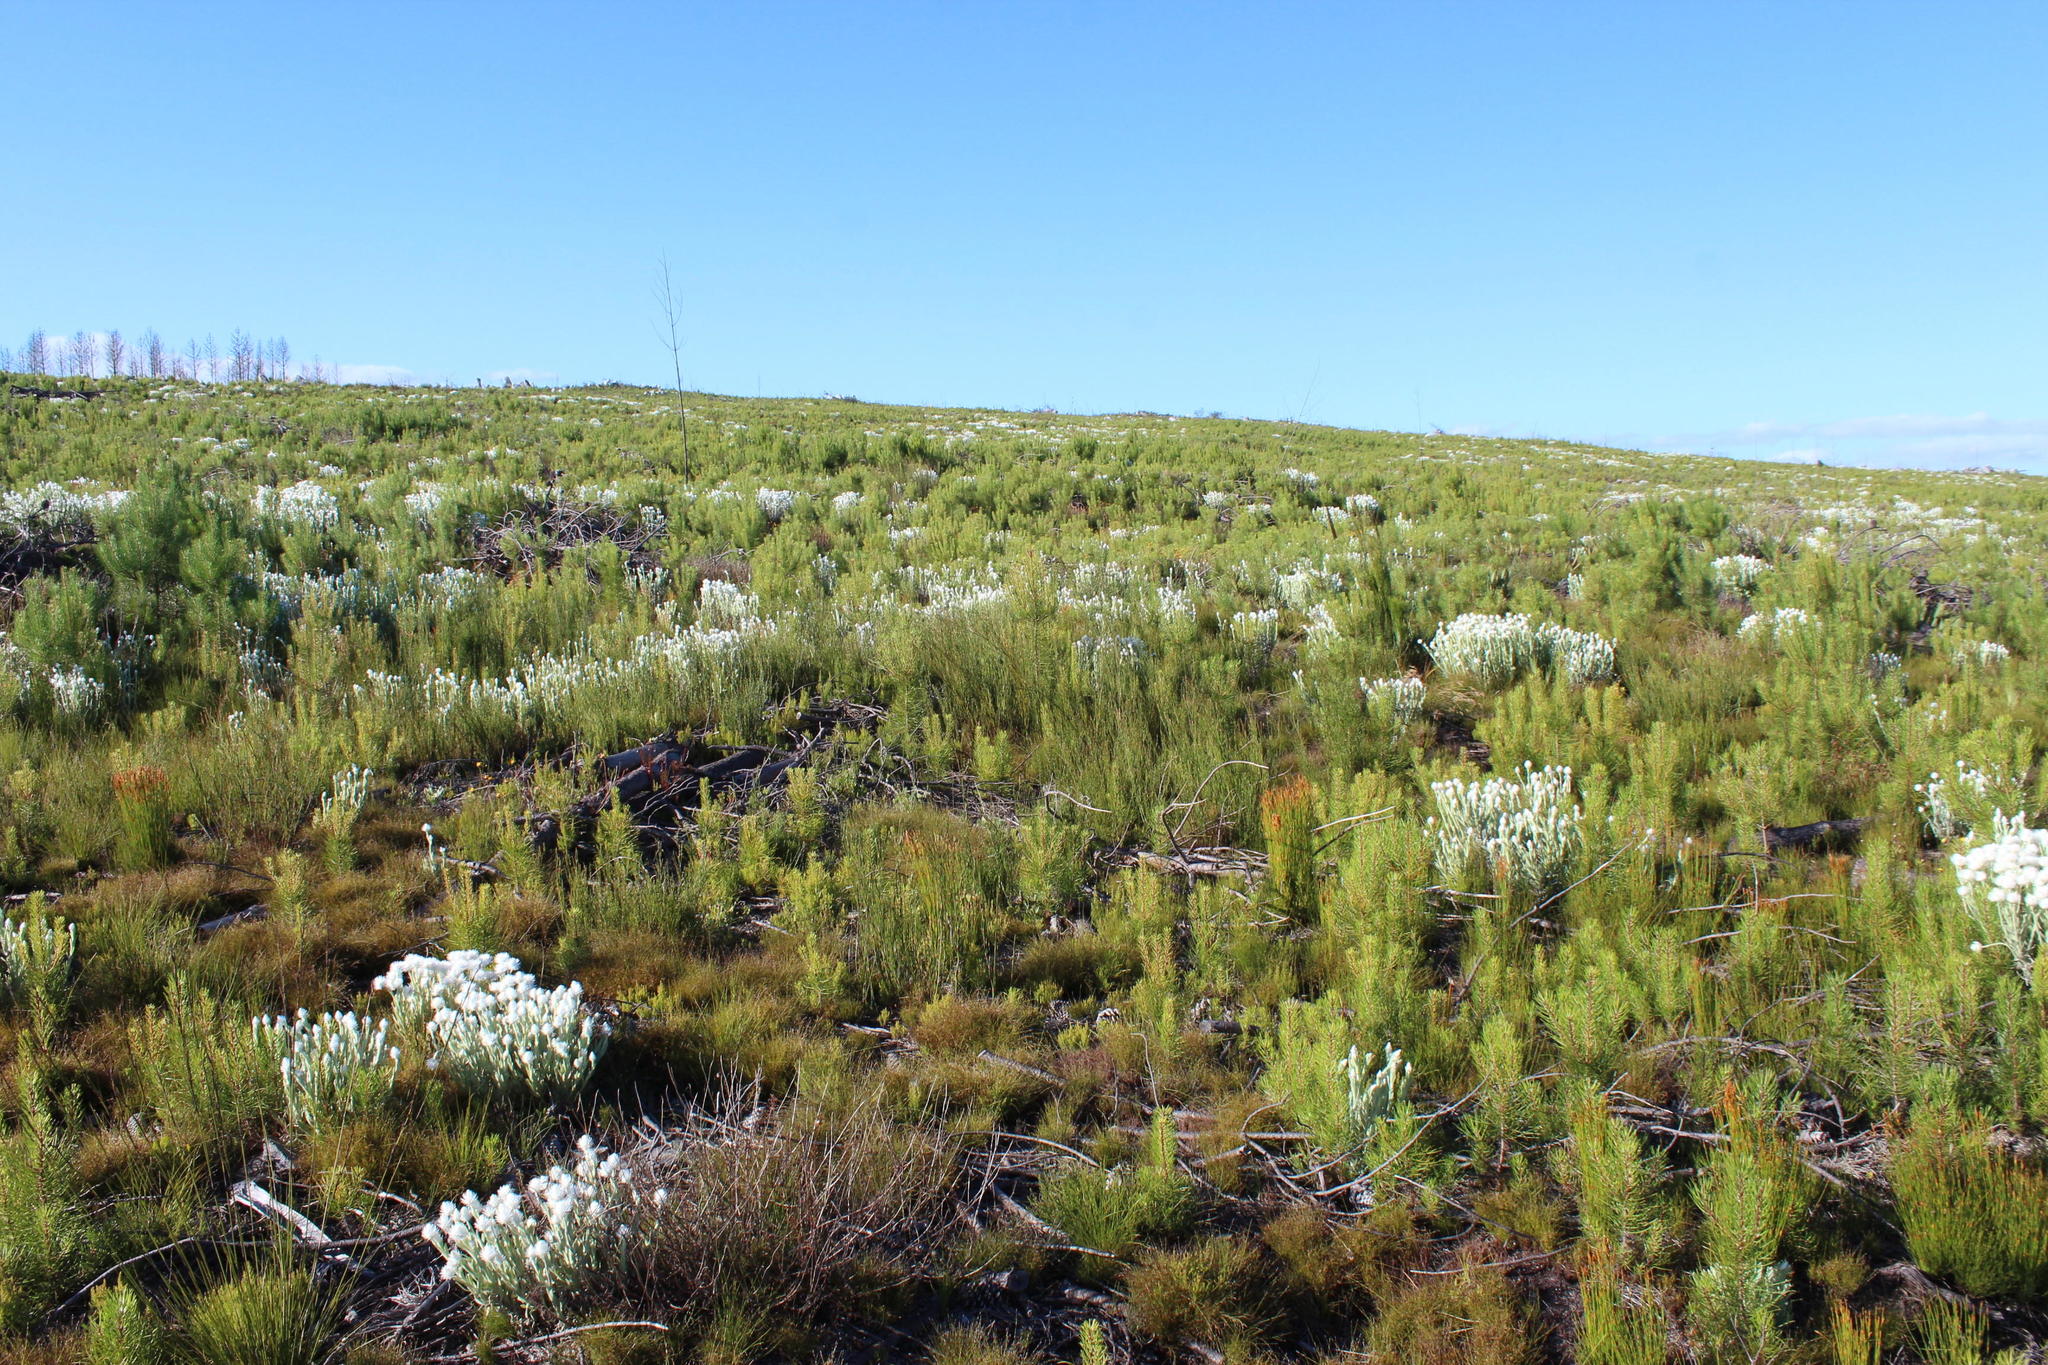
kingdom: Plantae
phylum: Tracheophyta
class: Magnoliopsida
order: Asterales
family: Asteraceae
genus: Syncarpha
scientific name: Syncarpha vestita
